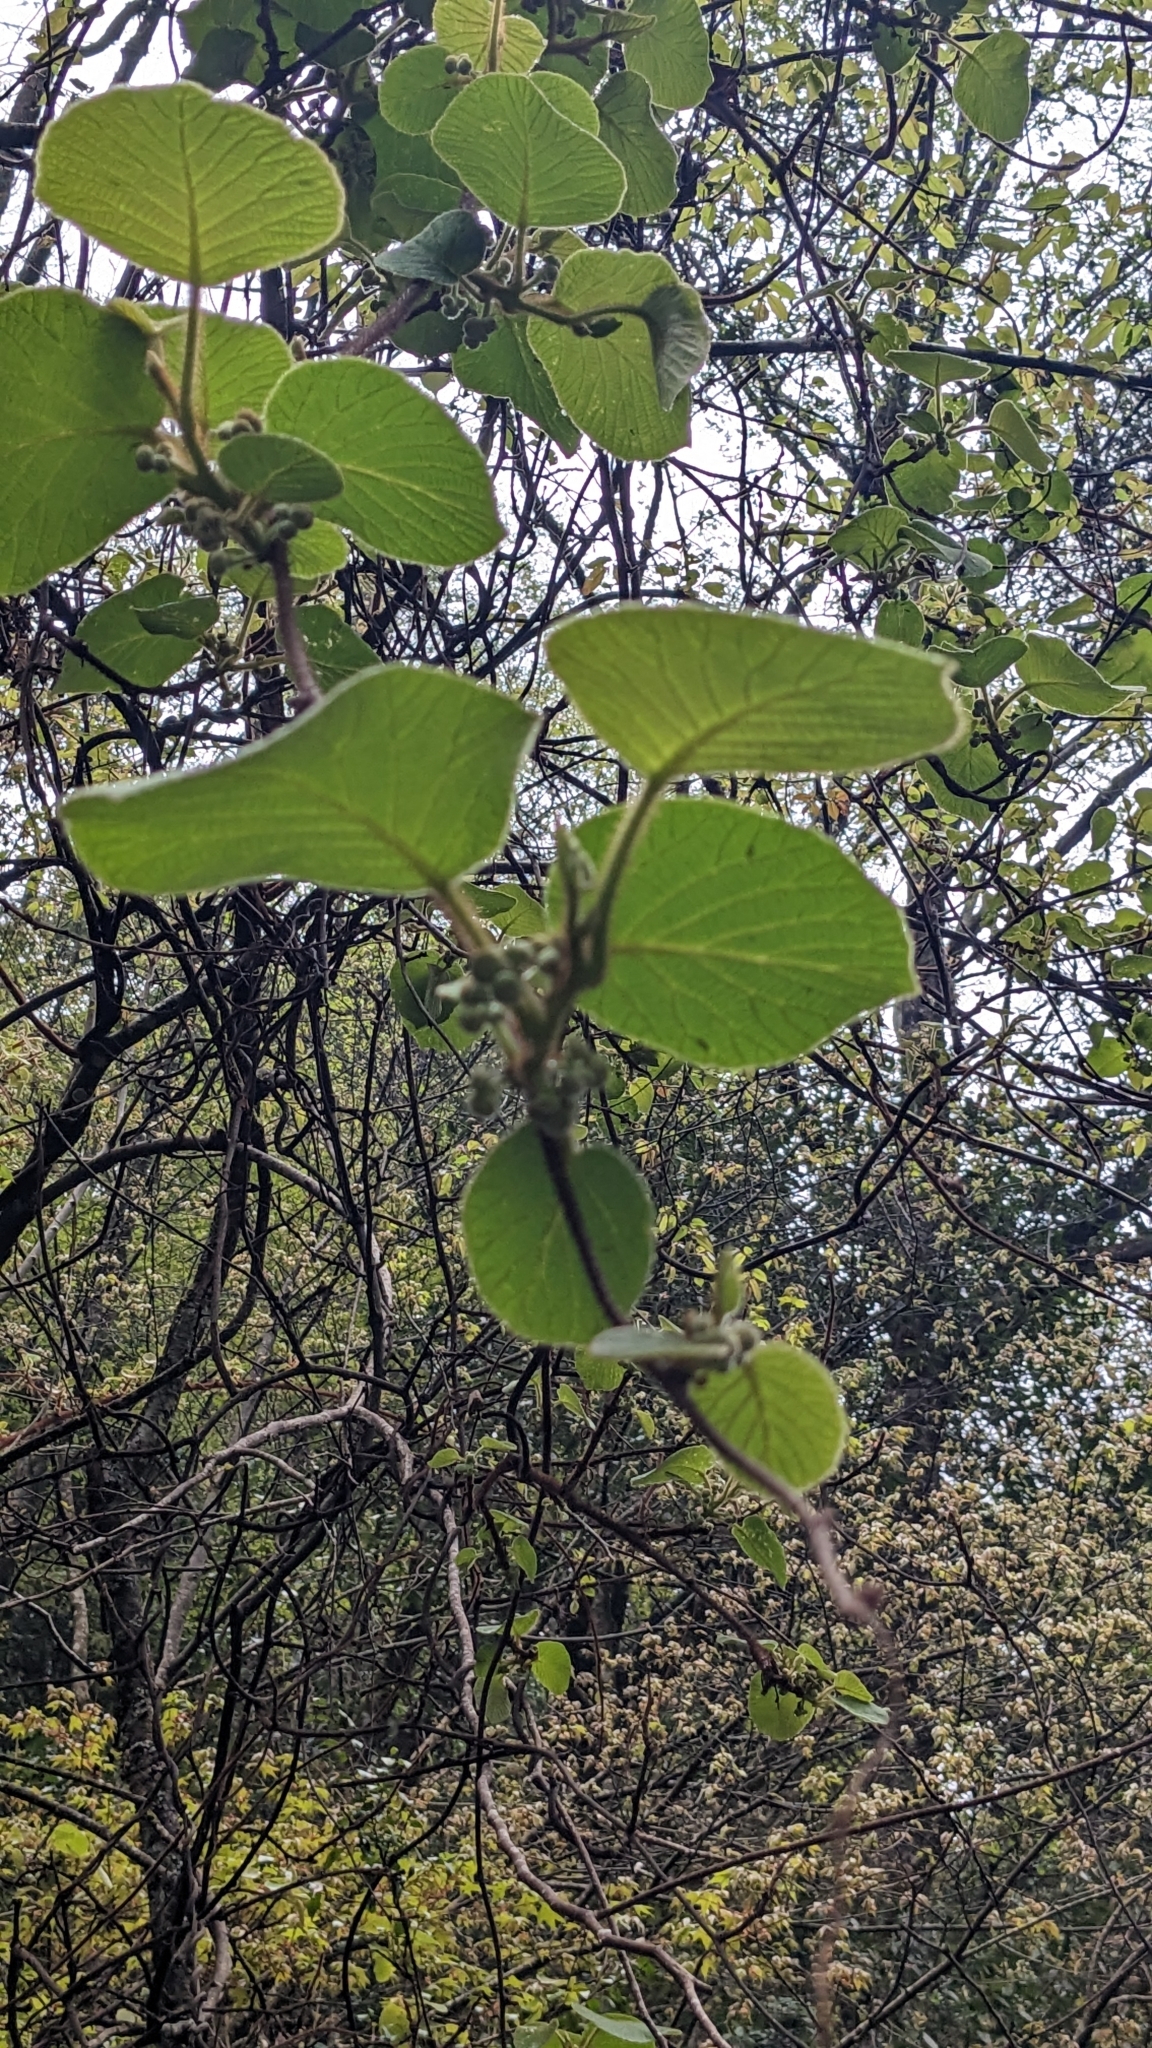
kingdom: Plantae
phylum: Tracheophyta
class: Magnoliopsida
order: Ericales
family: Actinidiaceae
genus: Actinidia
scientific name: Actinidia chinensis
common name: Kiwi
